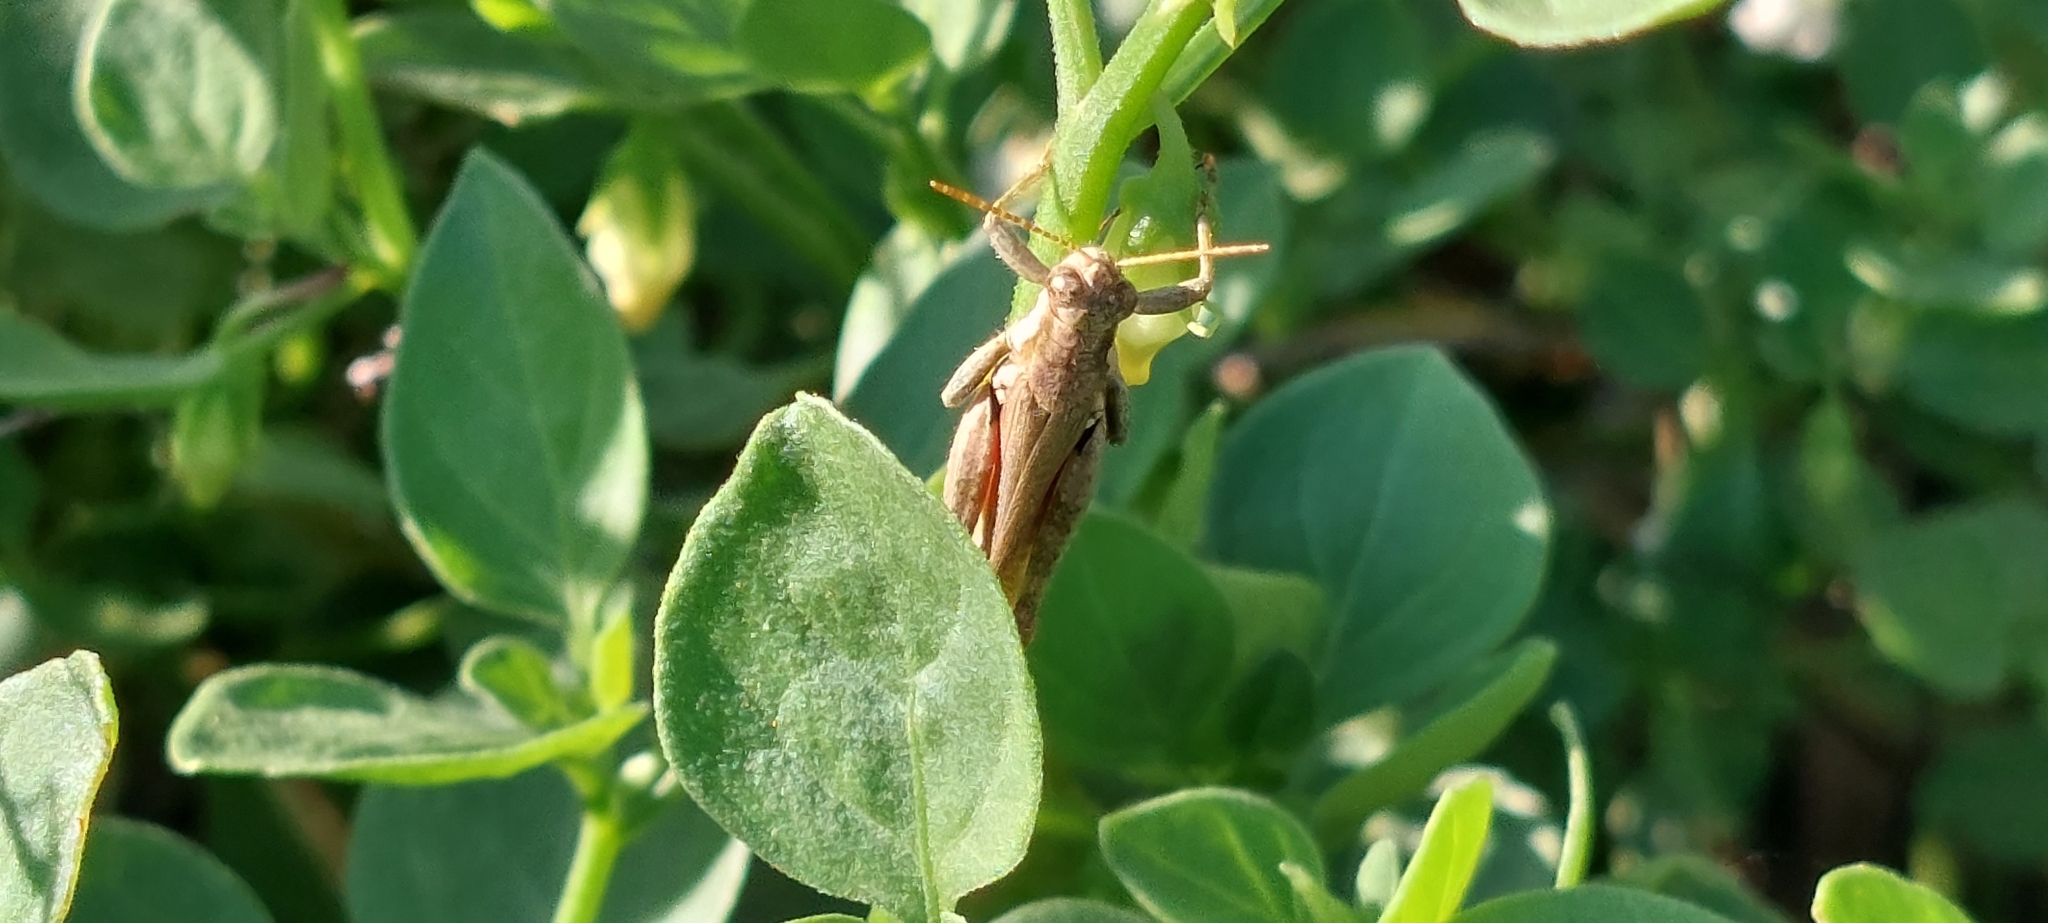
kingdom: Animalia
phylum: Arthropoda
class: Insecta
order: Orthoptera
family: Acrididae
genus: Ronderosia
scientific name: Ronderosia bergii
